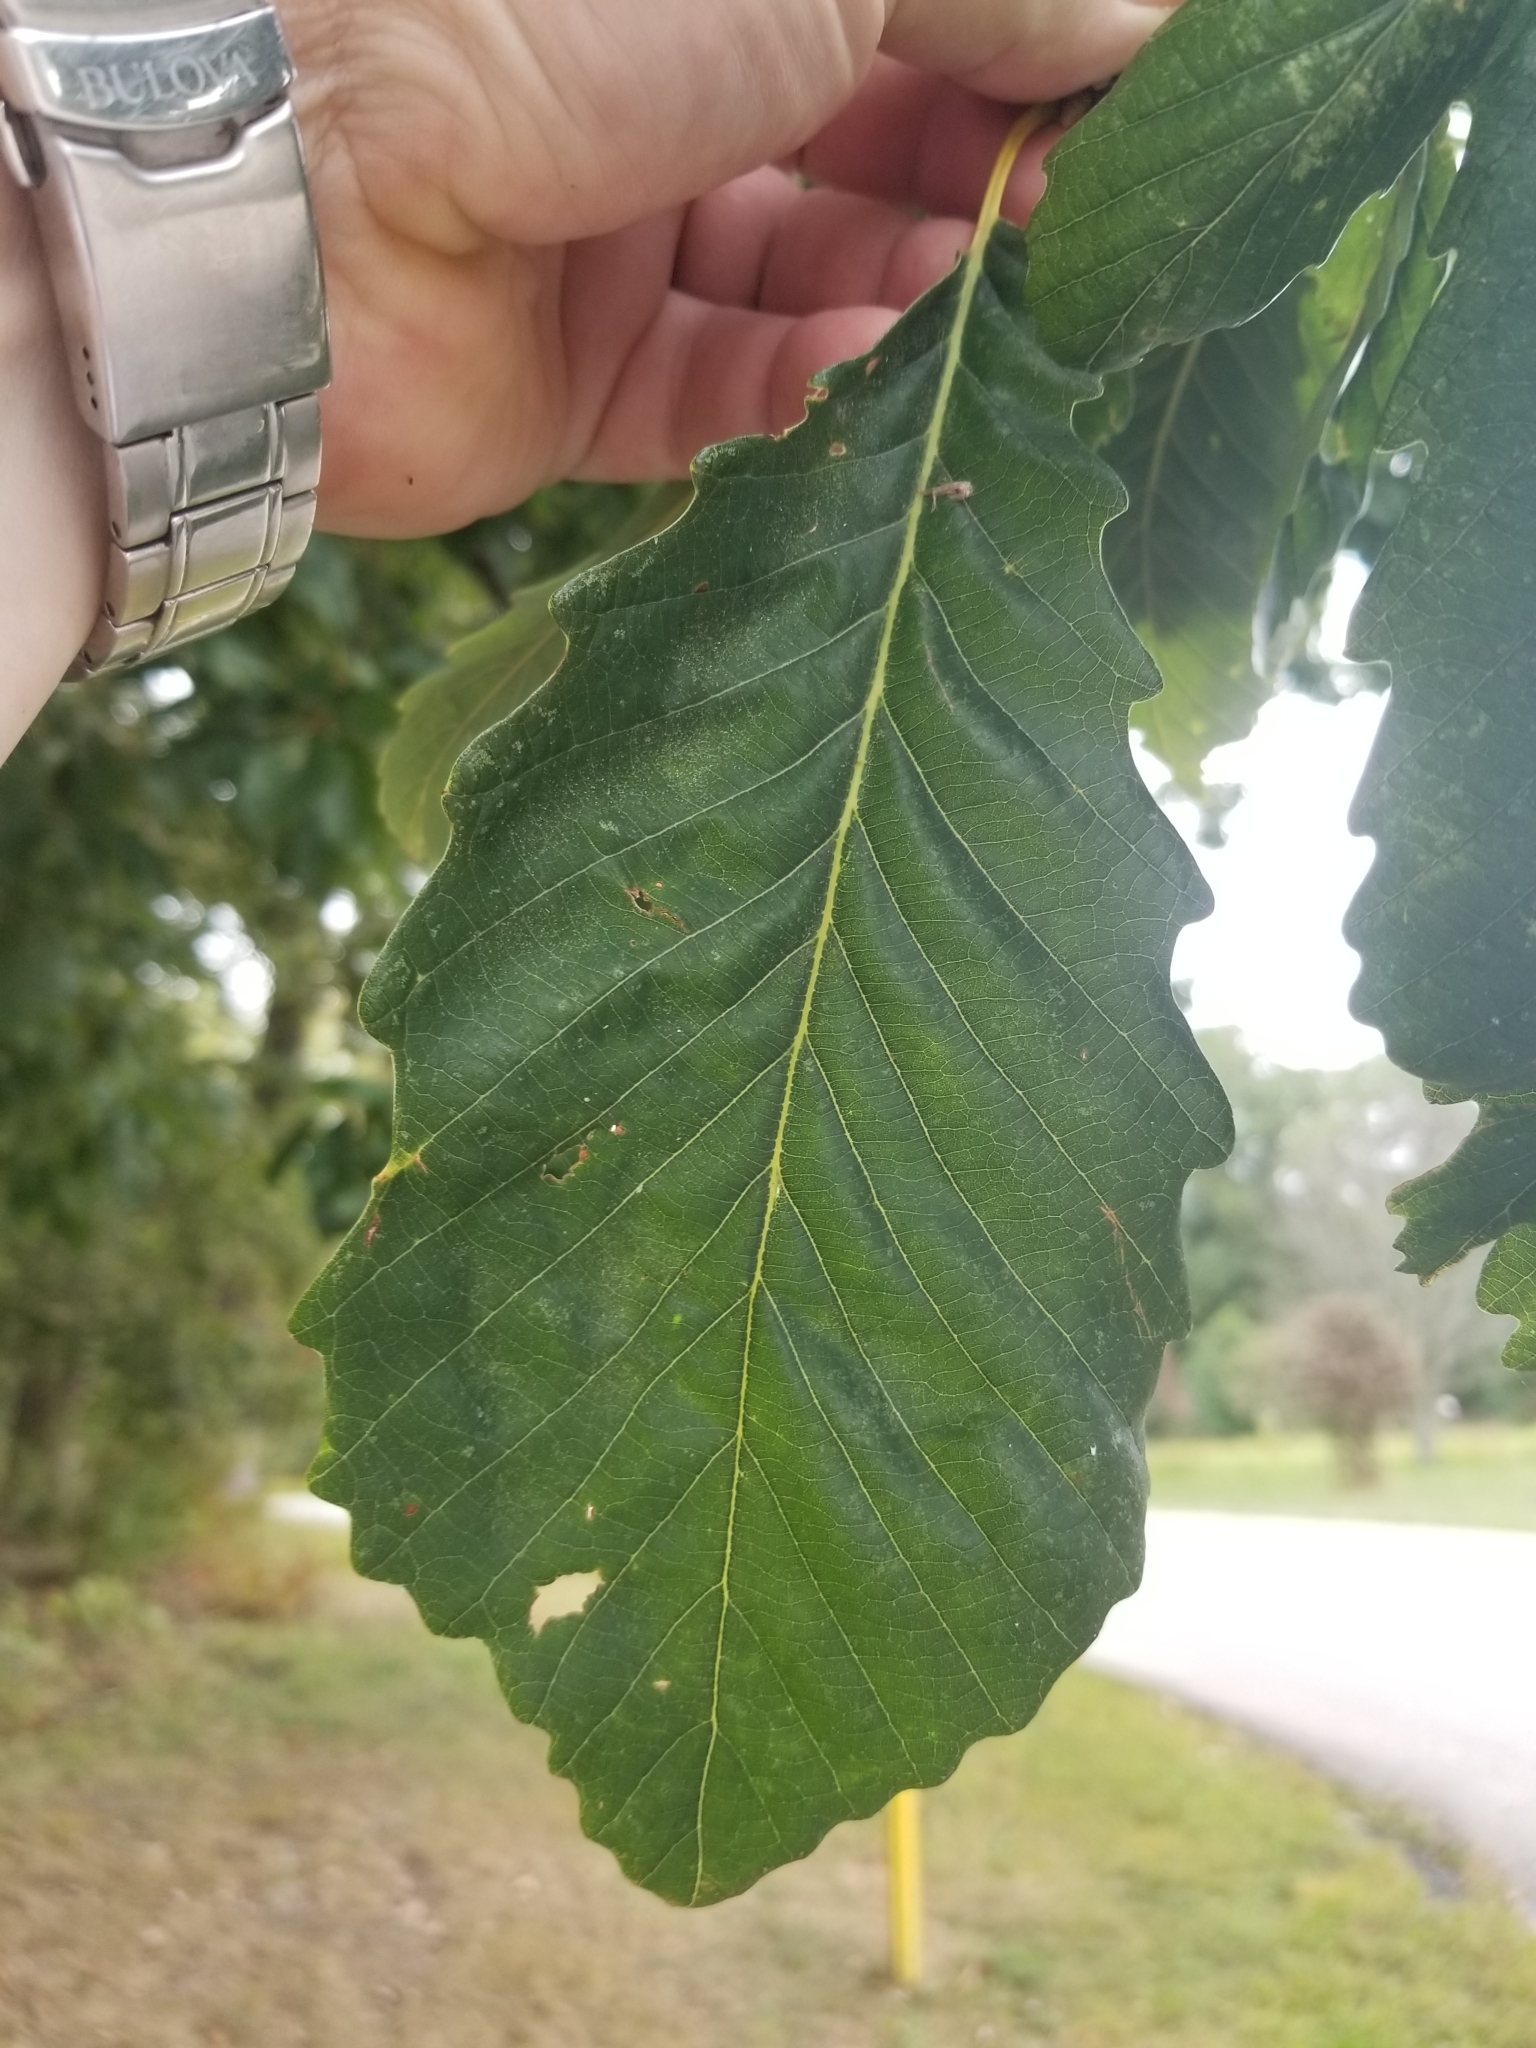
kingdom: Plantae
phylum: Tracheophyta
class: Magnoliopsida
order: Fagales
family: Fagaceae
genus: Quercus
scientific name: Quercus montana
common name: Chestnut oak
